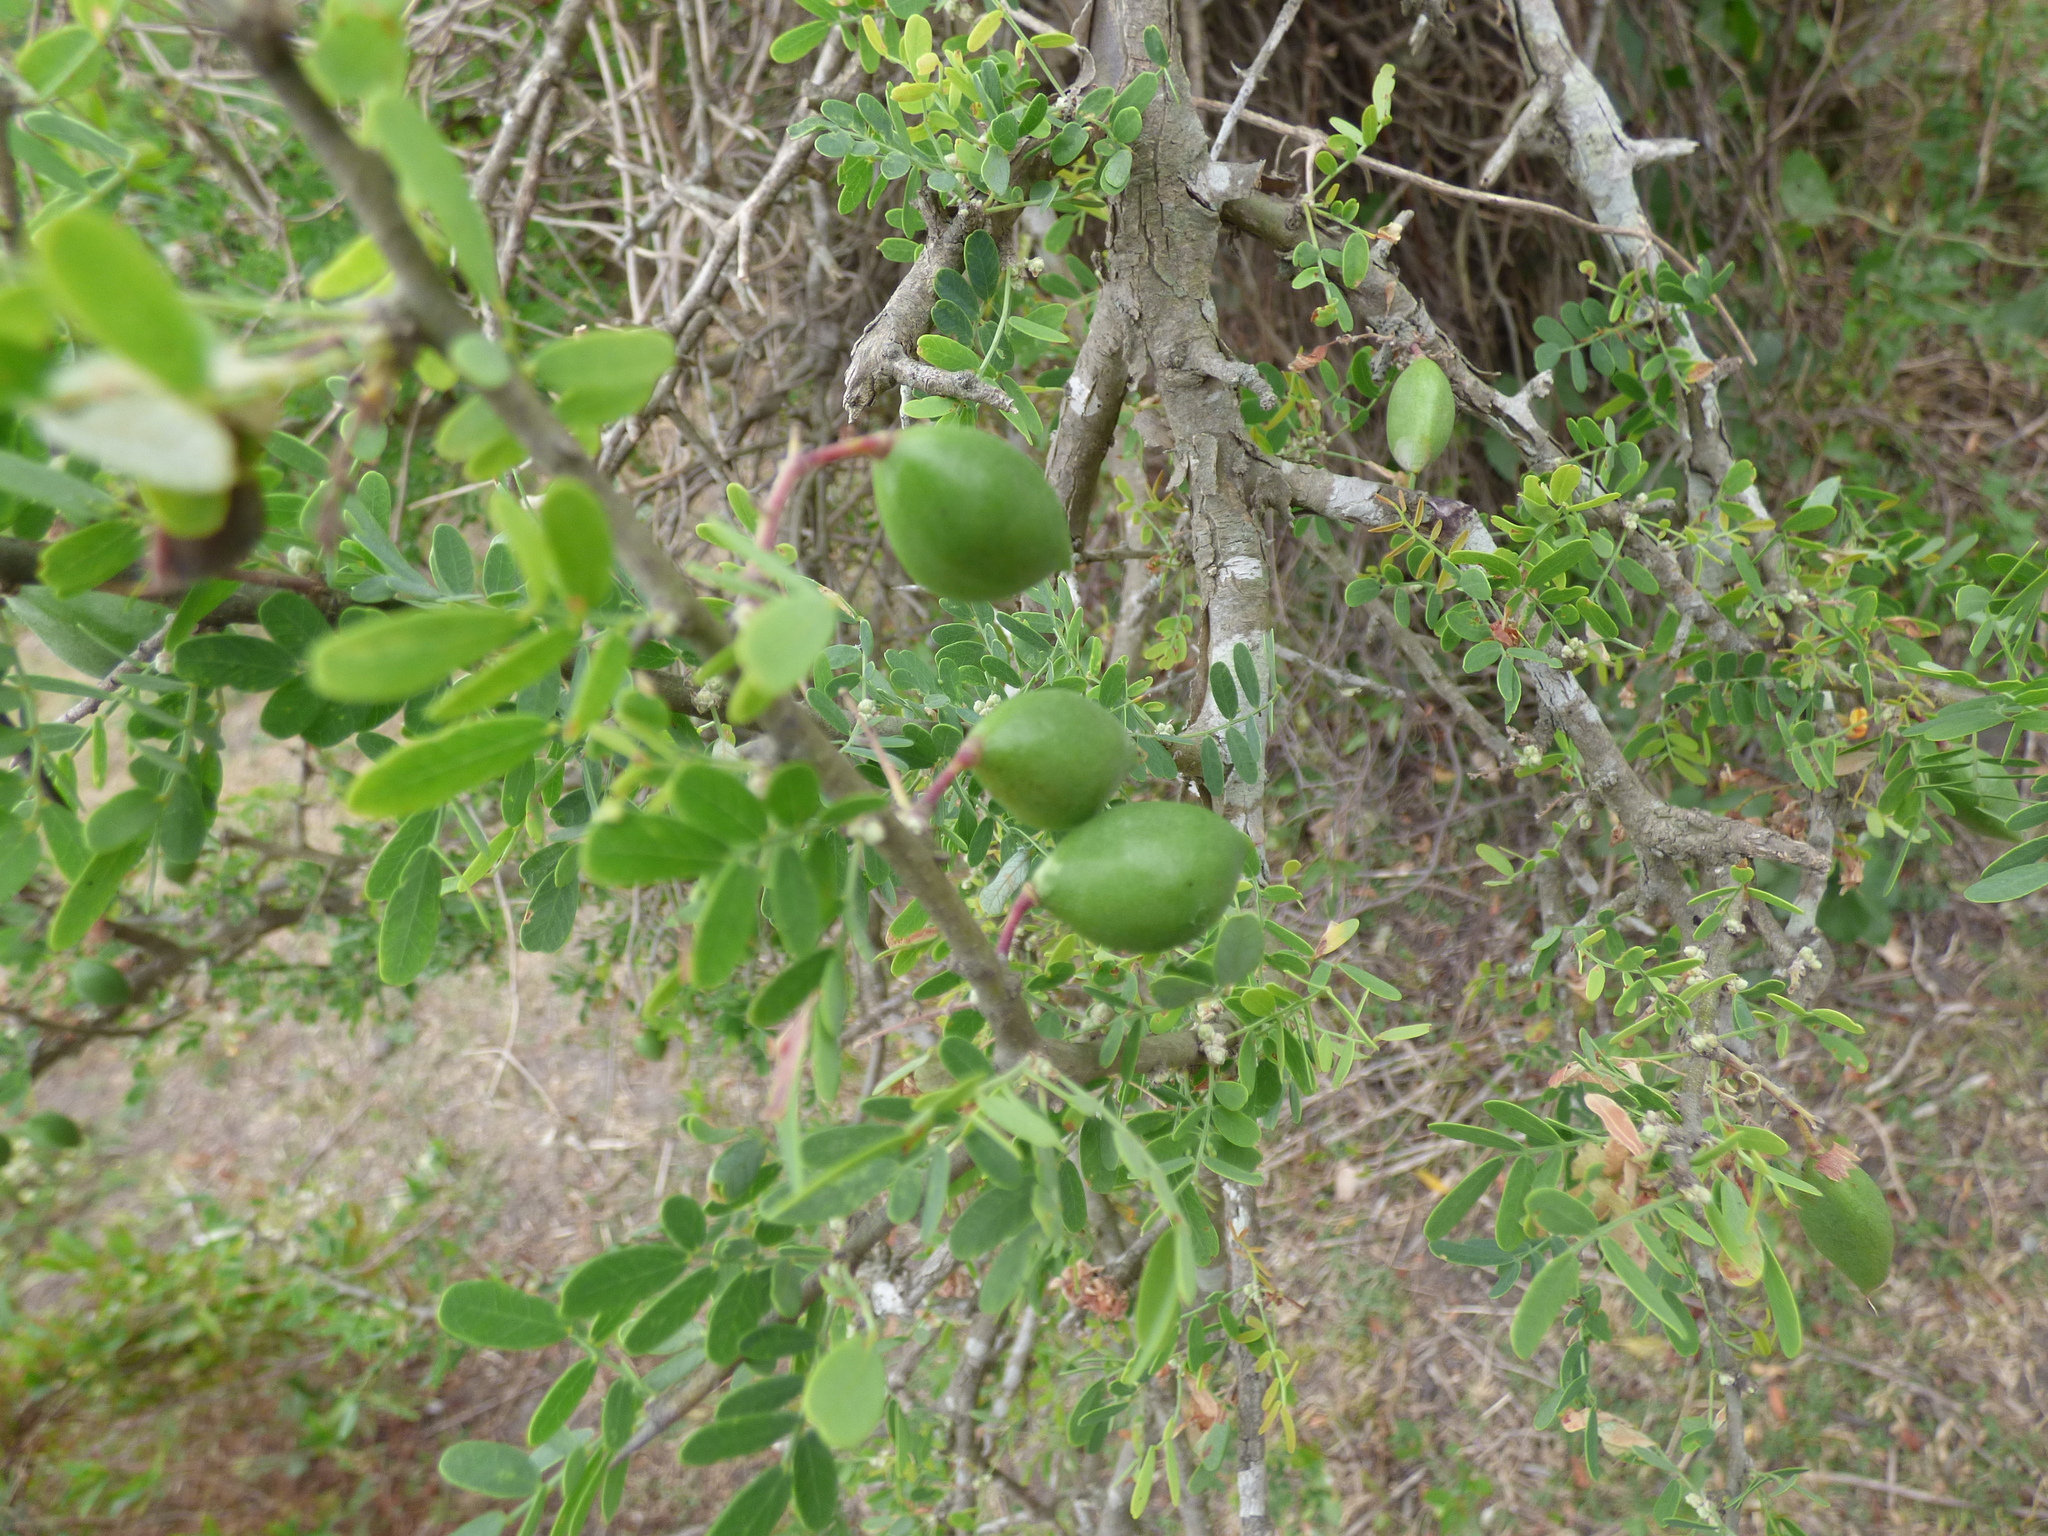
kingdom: Plantae
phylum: Tracheophyta
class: Magnoliopsida
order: Fabales
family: Fabaceae
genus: Geoffroea
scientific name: Geoffroea decorticans
